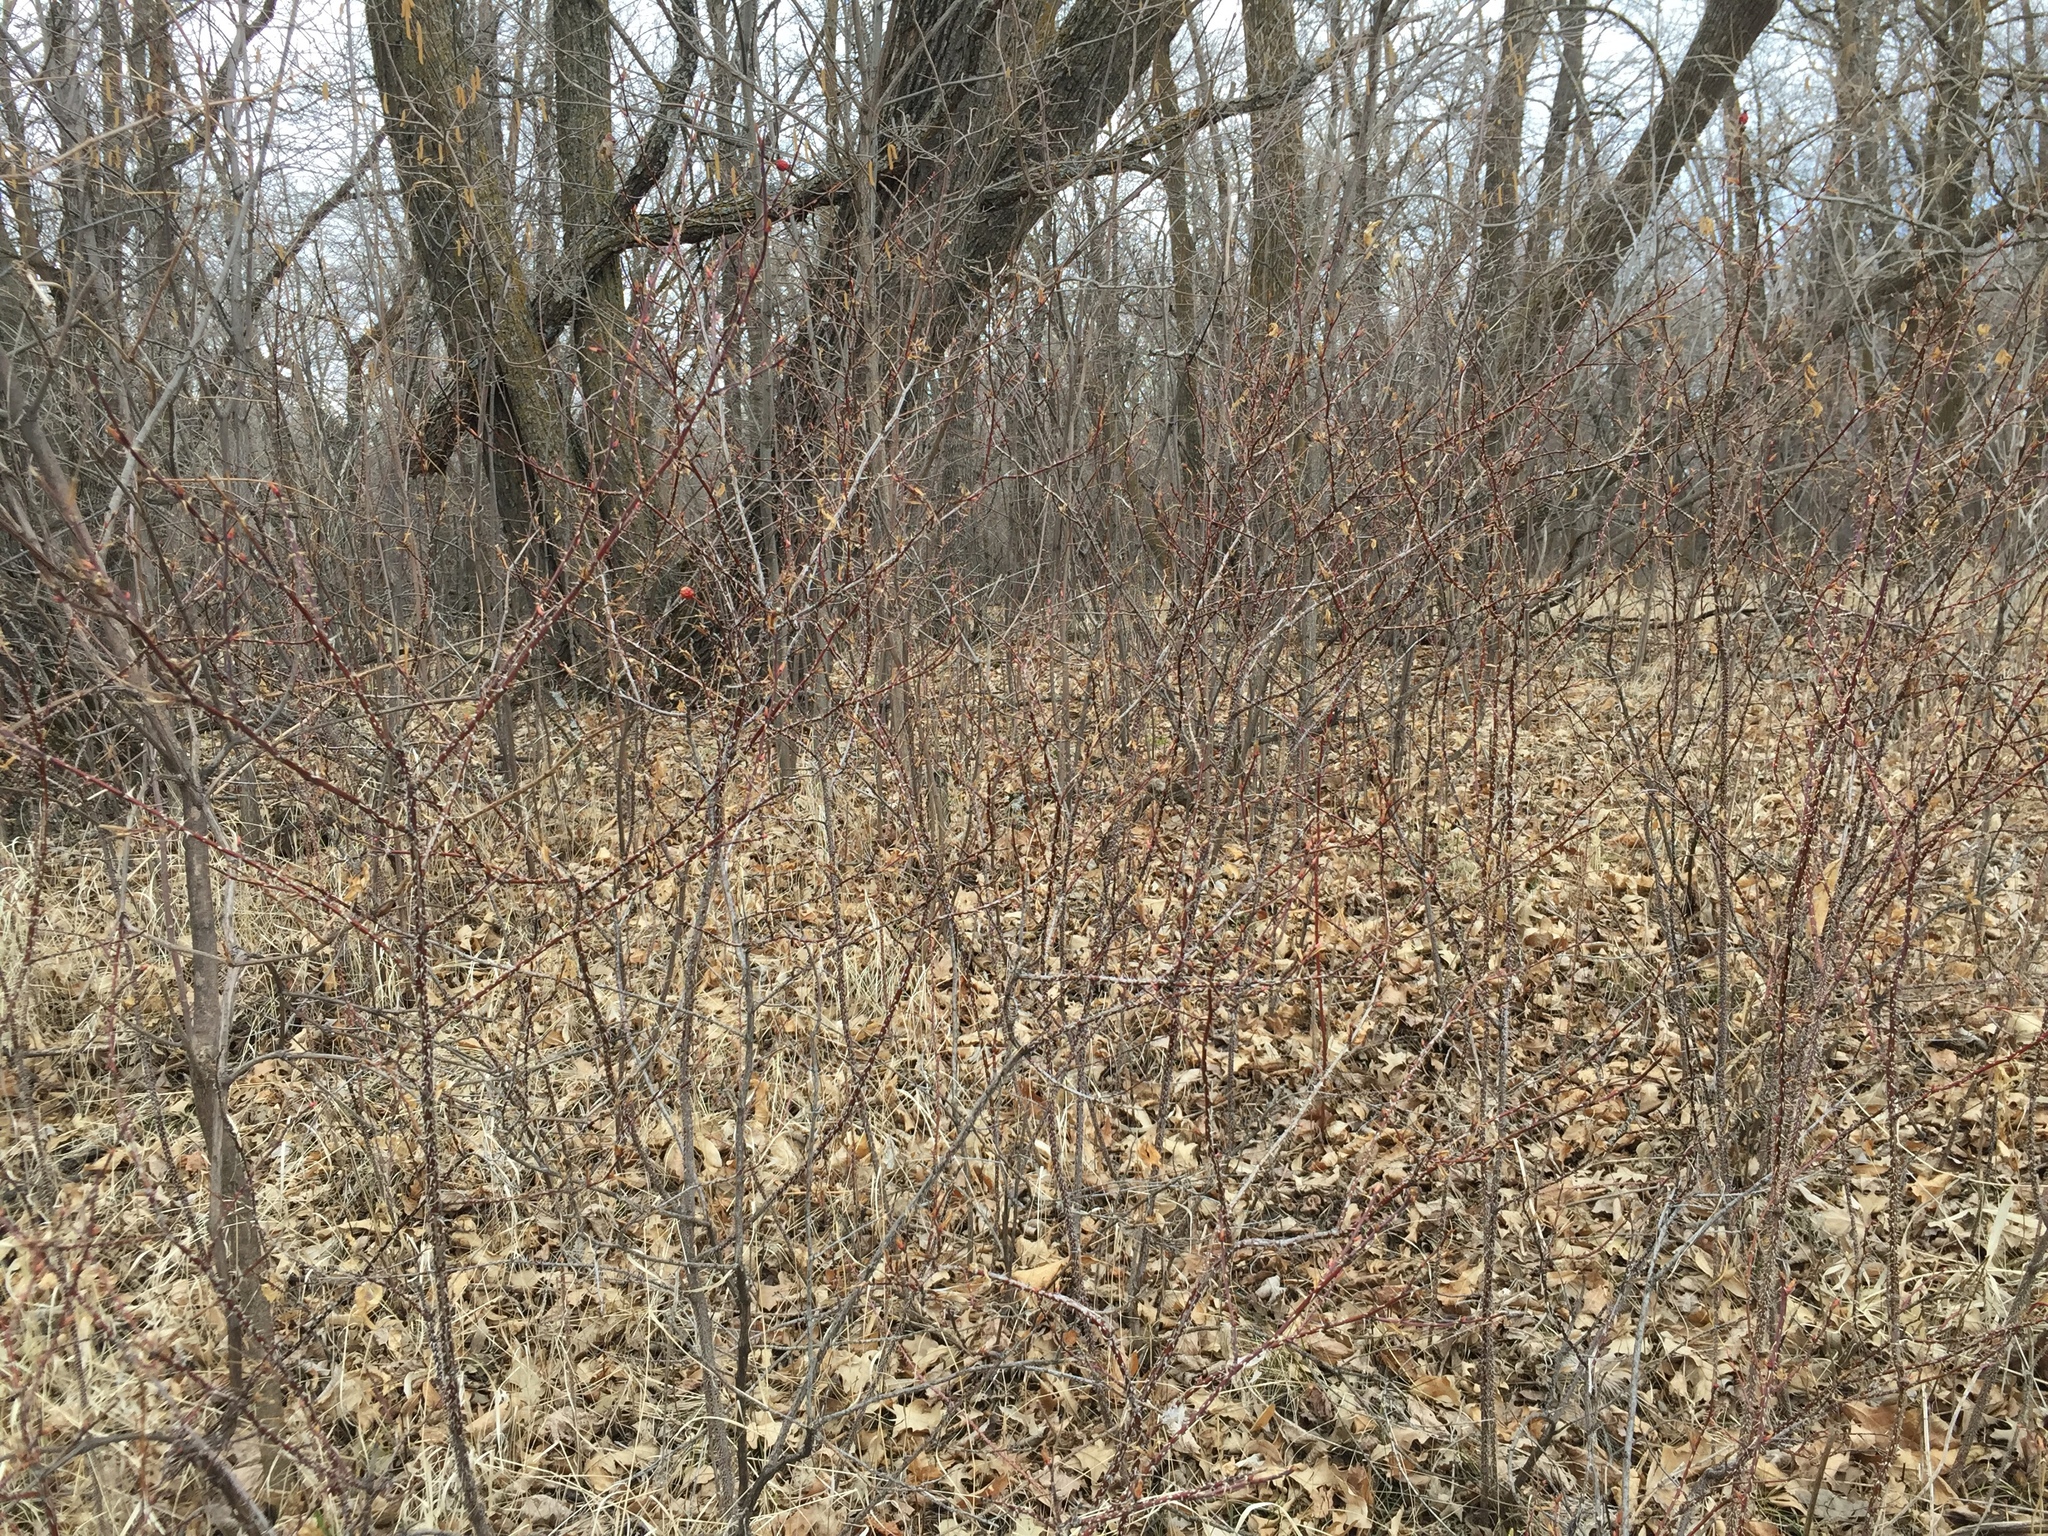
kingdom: Plantae
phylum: Tracheophyta
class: Magnoliopsida
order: Rosales
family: Rosaceae
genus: Rosa
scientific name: Rosa woodsii
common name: Woods's rose
